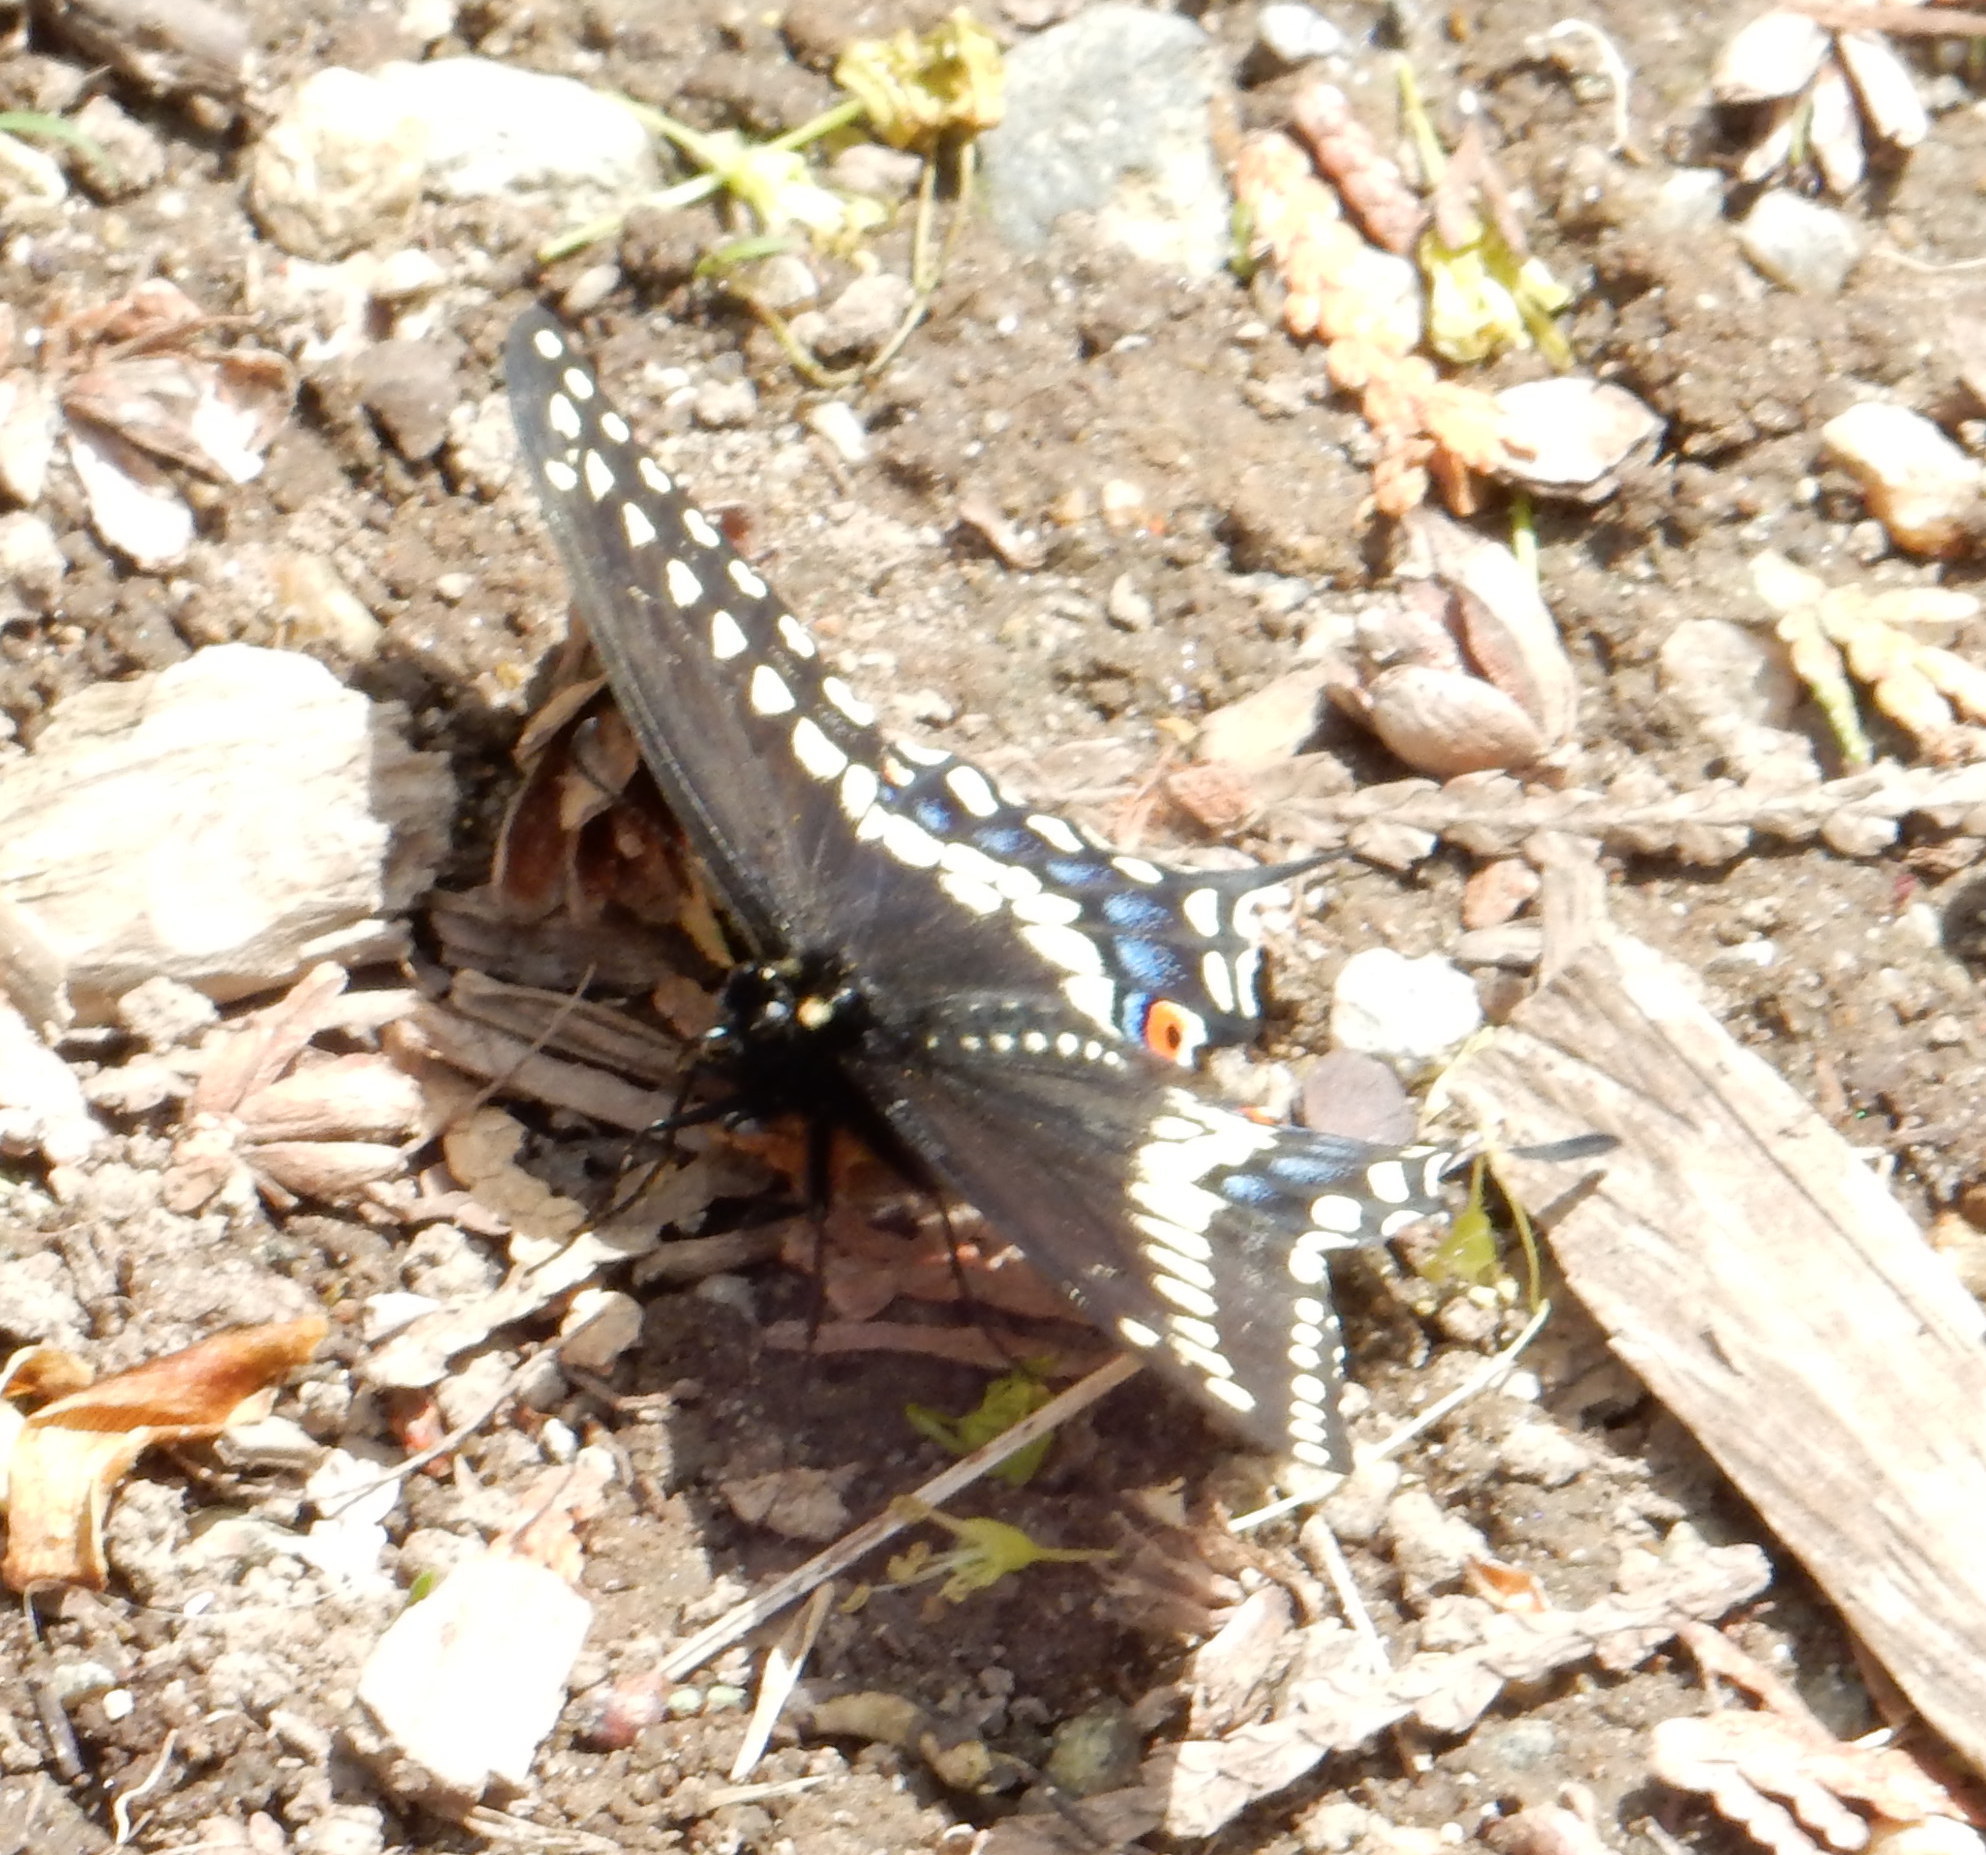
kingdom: Animalia
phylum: Arthropoda
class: Insecta
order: Lepidoptera
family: Papilionidae
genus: Papilio
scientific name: Papilio polyxenes
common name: Black swallowtail
